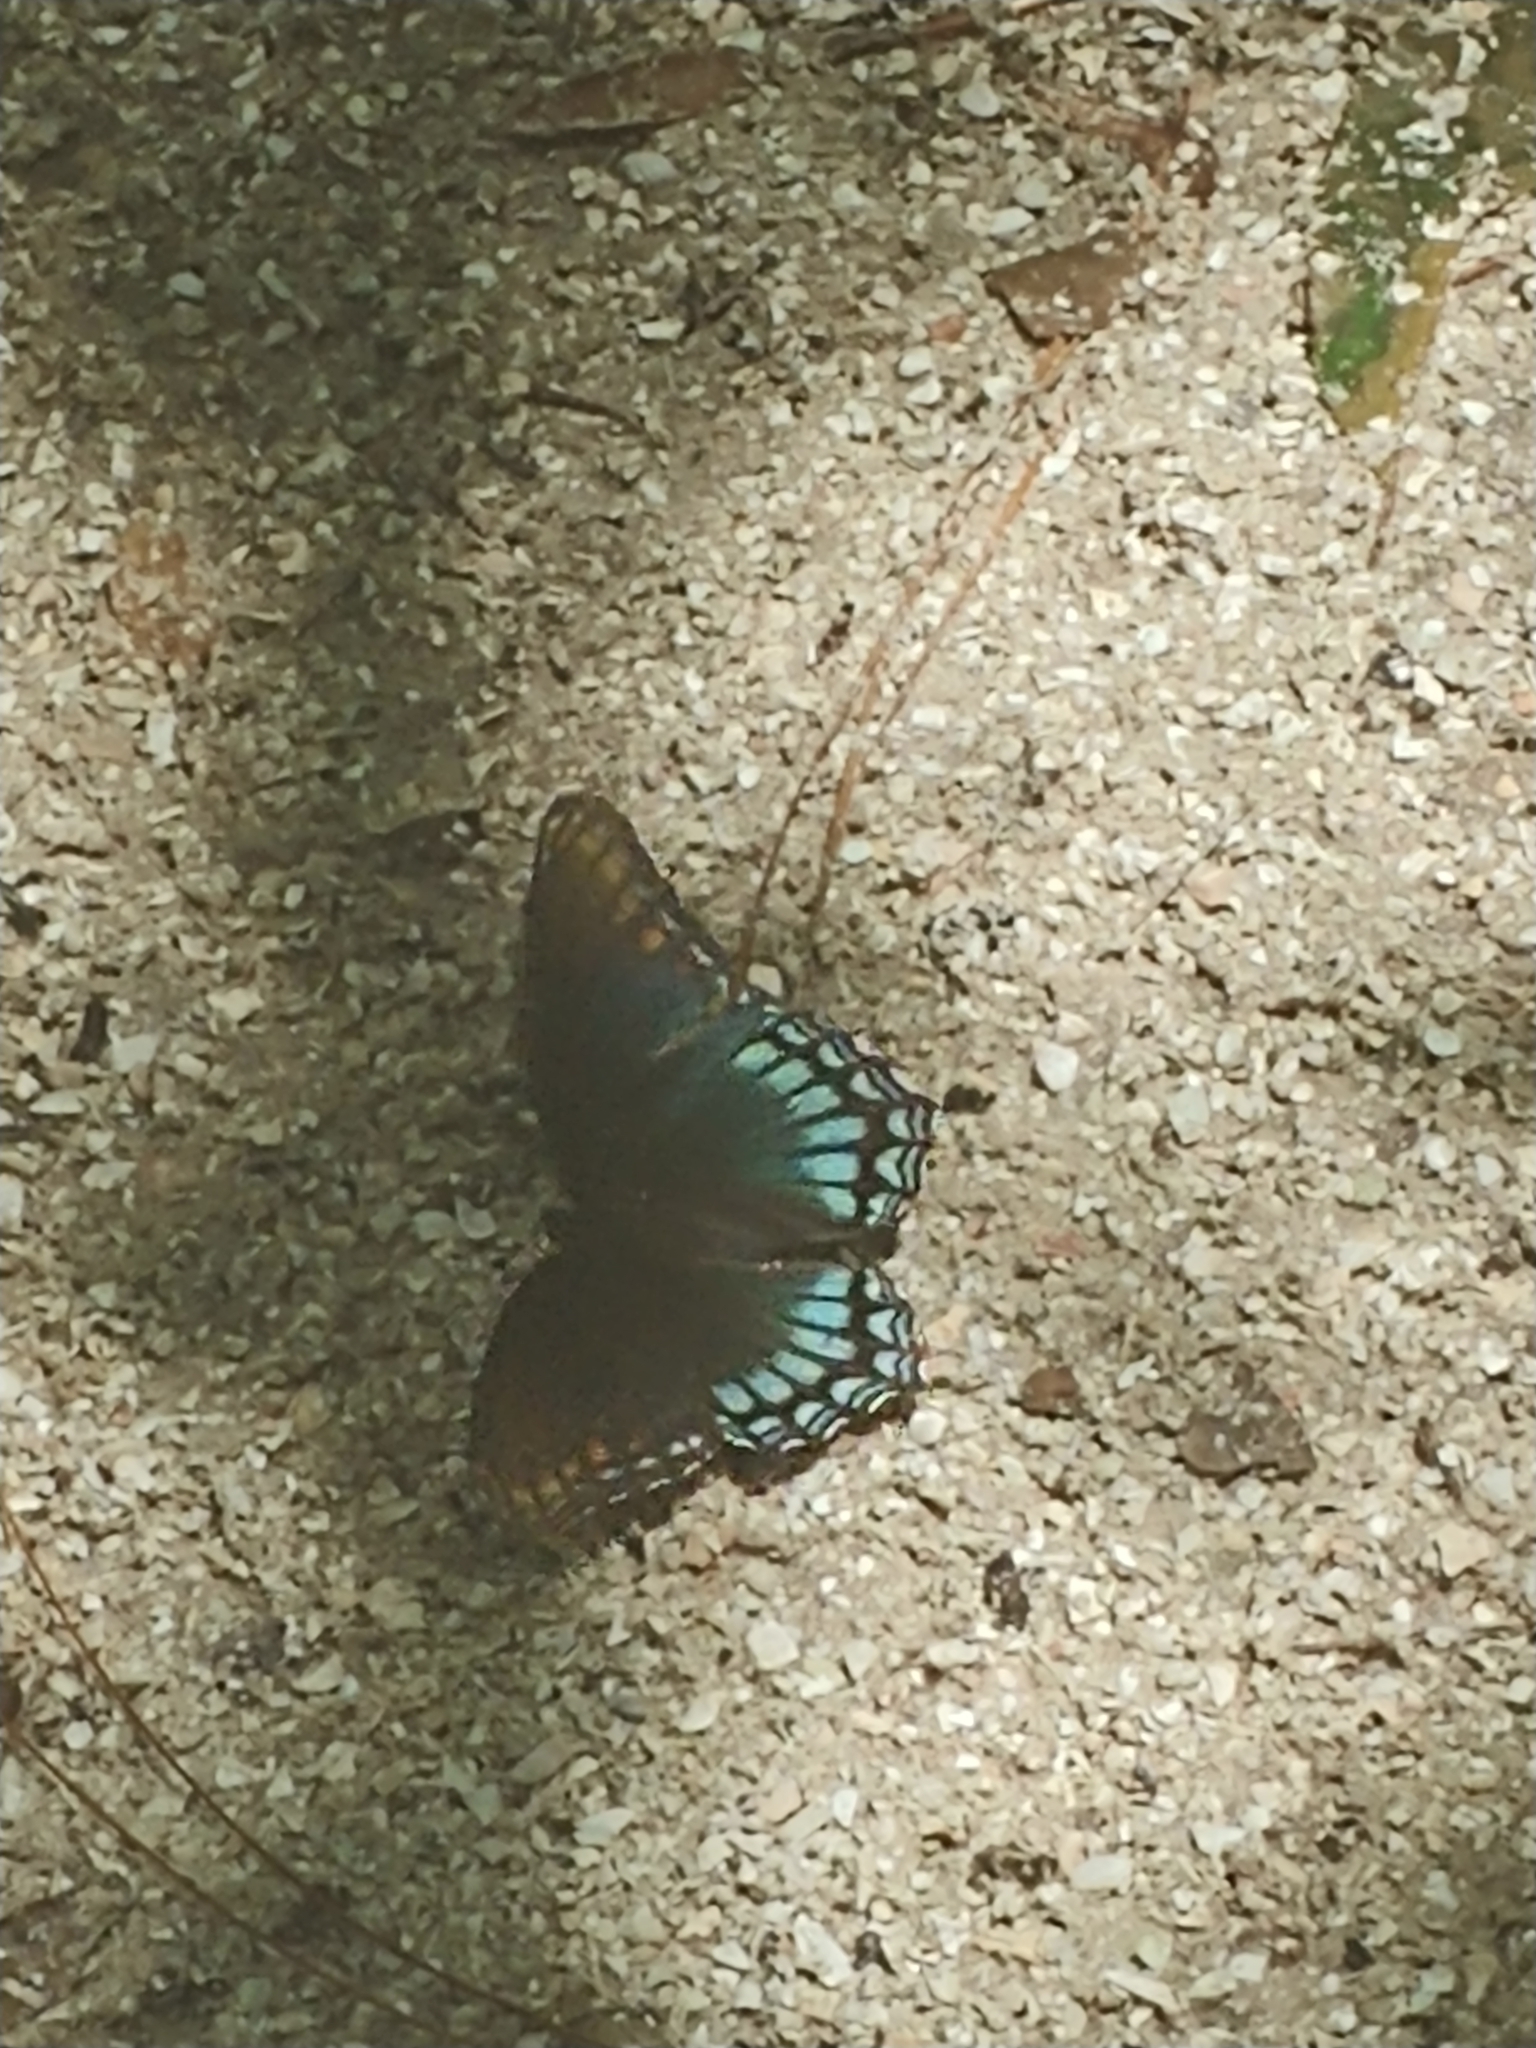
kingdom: Animalia
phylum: Arthropoda
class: Insecta
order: Lepidoptera
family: Nymphalidae
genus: Limenitis
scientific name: Limenitis arthemis
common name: Red-spotted admiral
